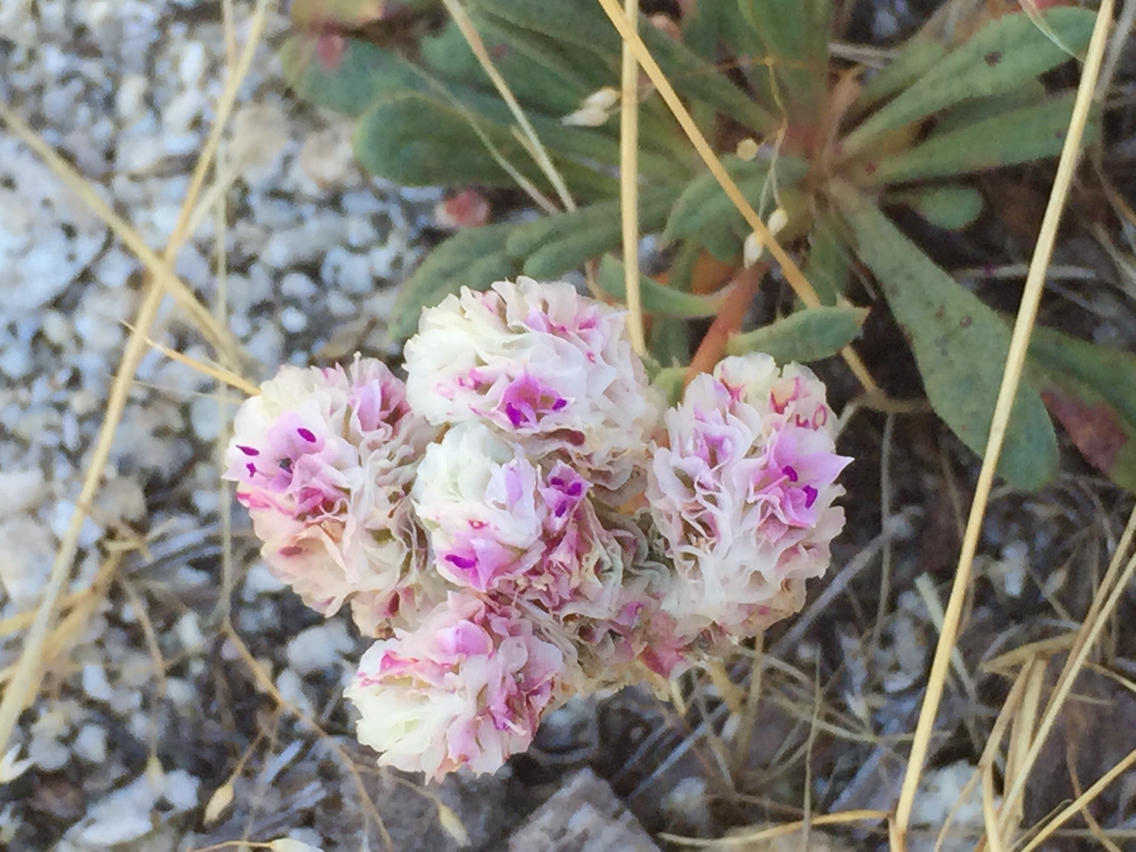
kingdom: Plantae
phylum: Tracheophyta
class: Magnoliopsida
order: Caryophyllales
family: Montiaceae
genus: Calyptridium
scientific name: Calyptridium monospermum
